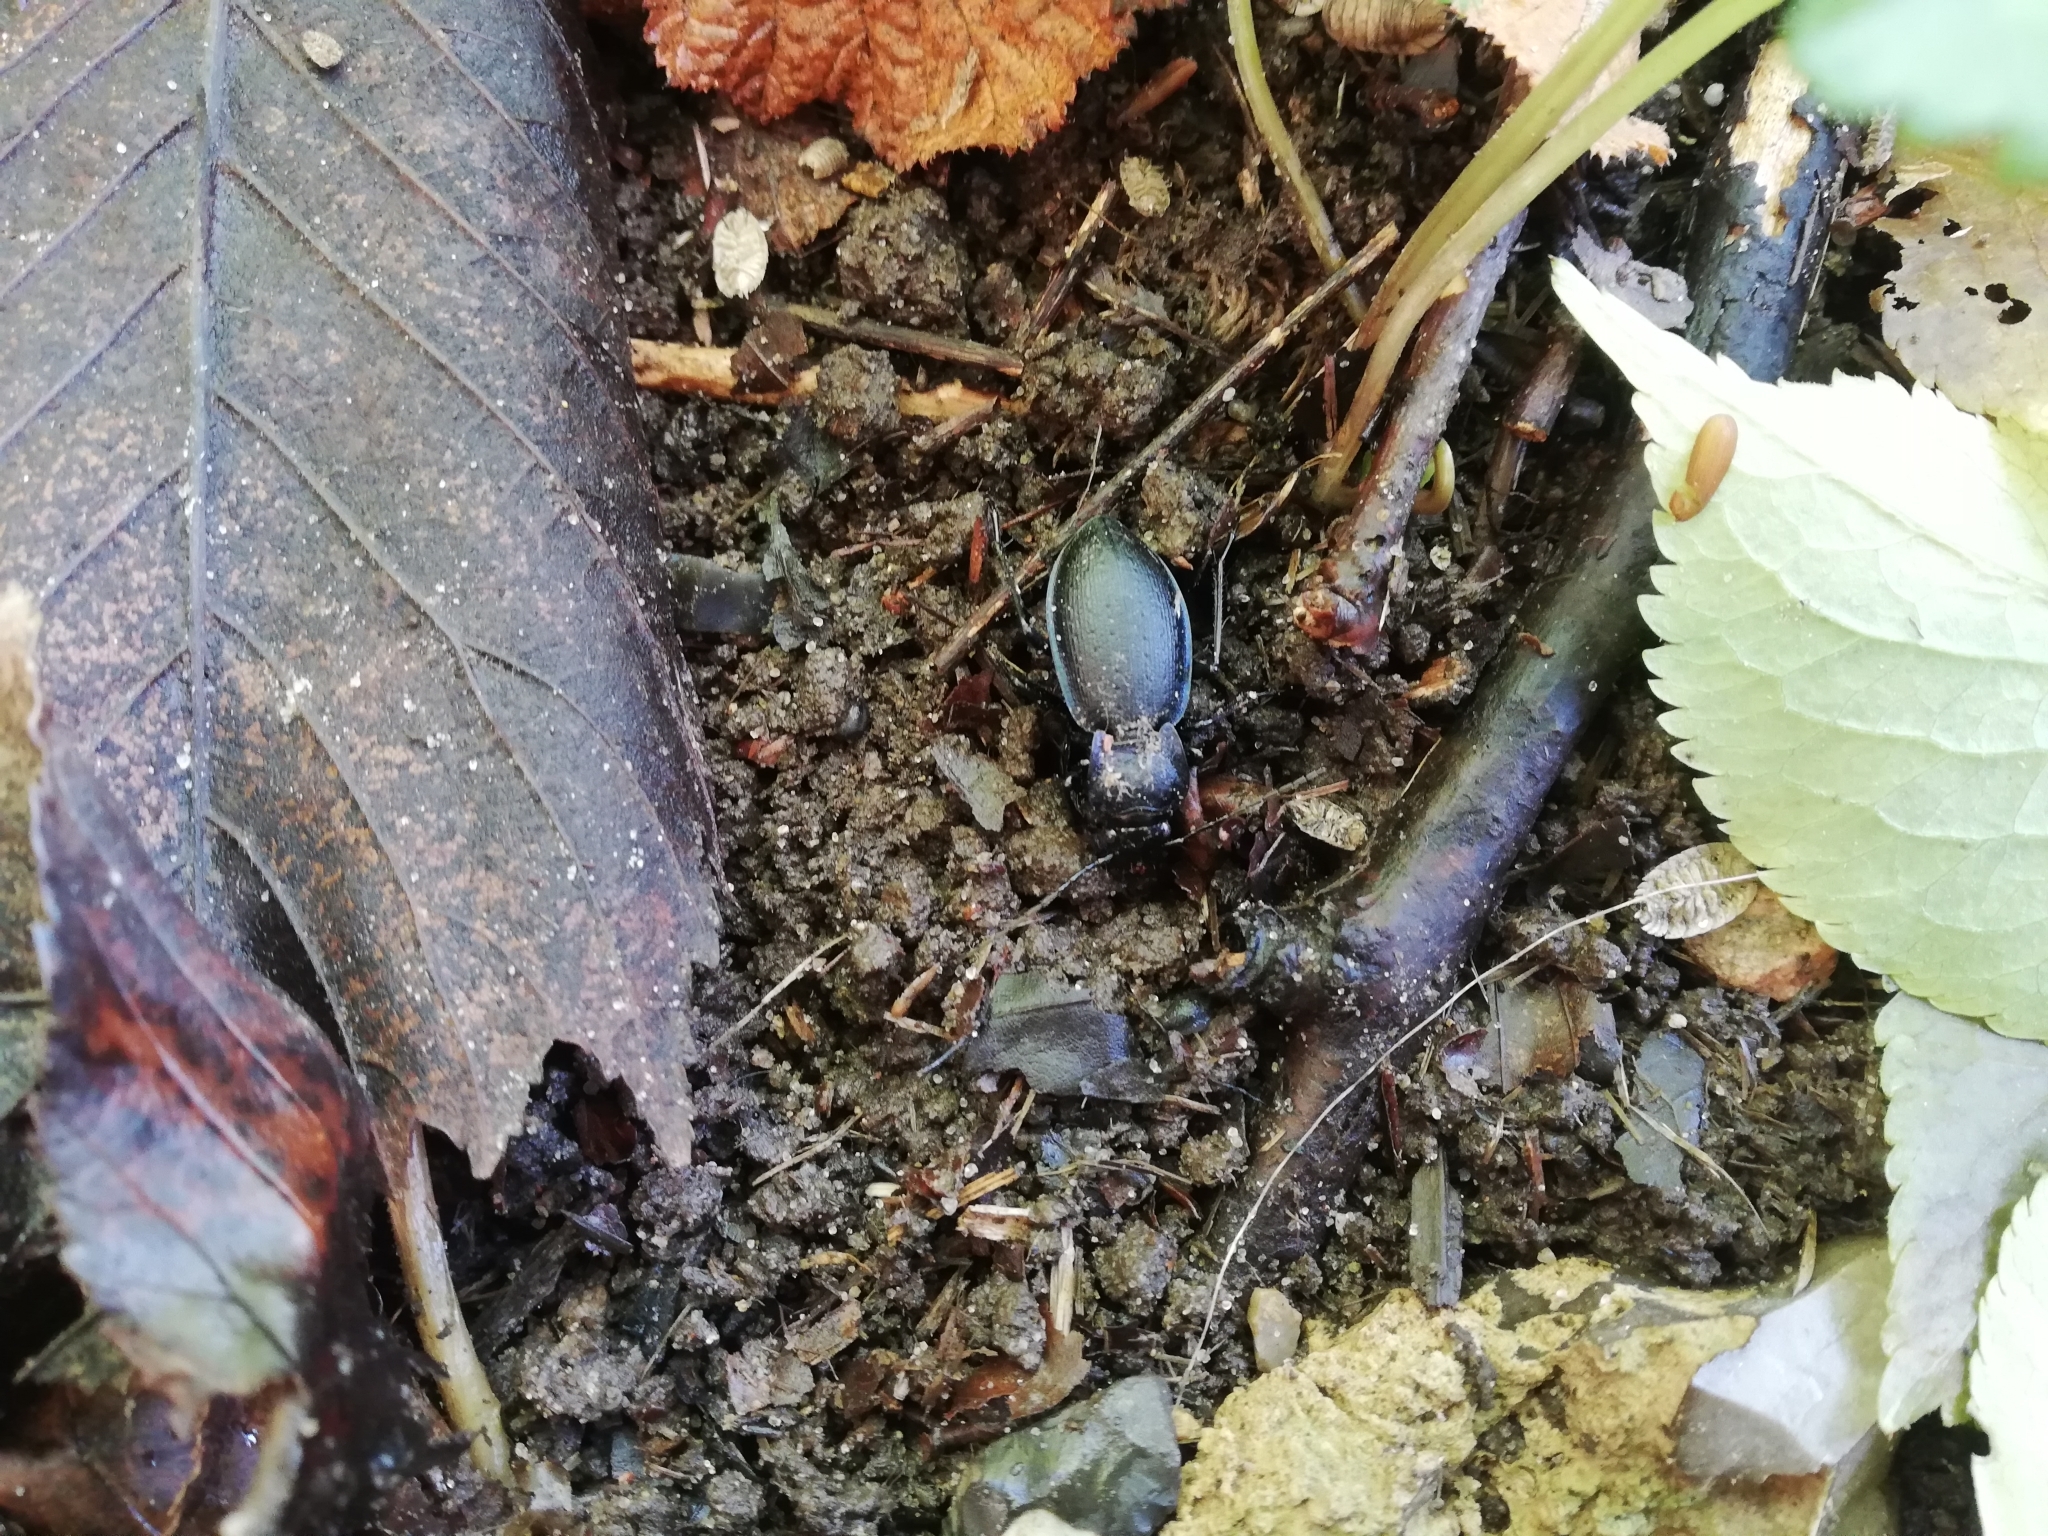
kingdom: Animalia
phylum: Arthropoda
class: Insecta
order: Coleoptera
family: Carabidae
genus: Carabus
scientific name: Carabus problematicus
